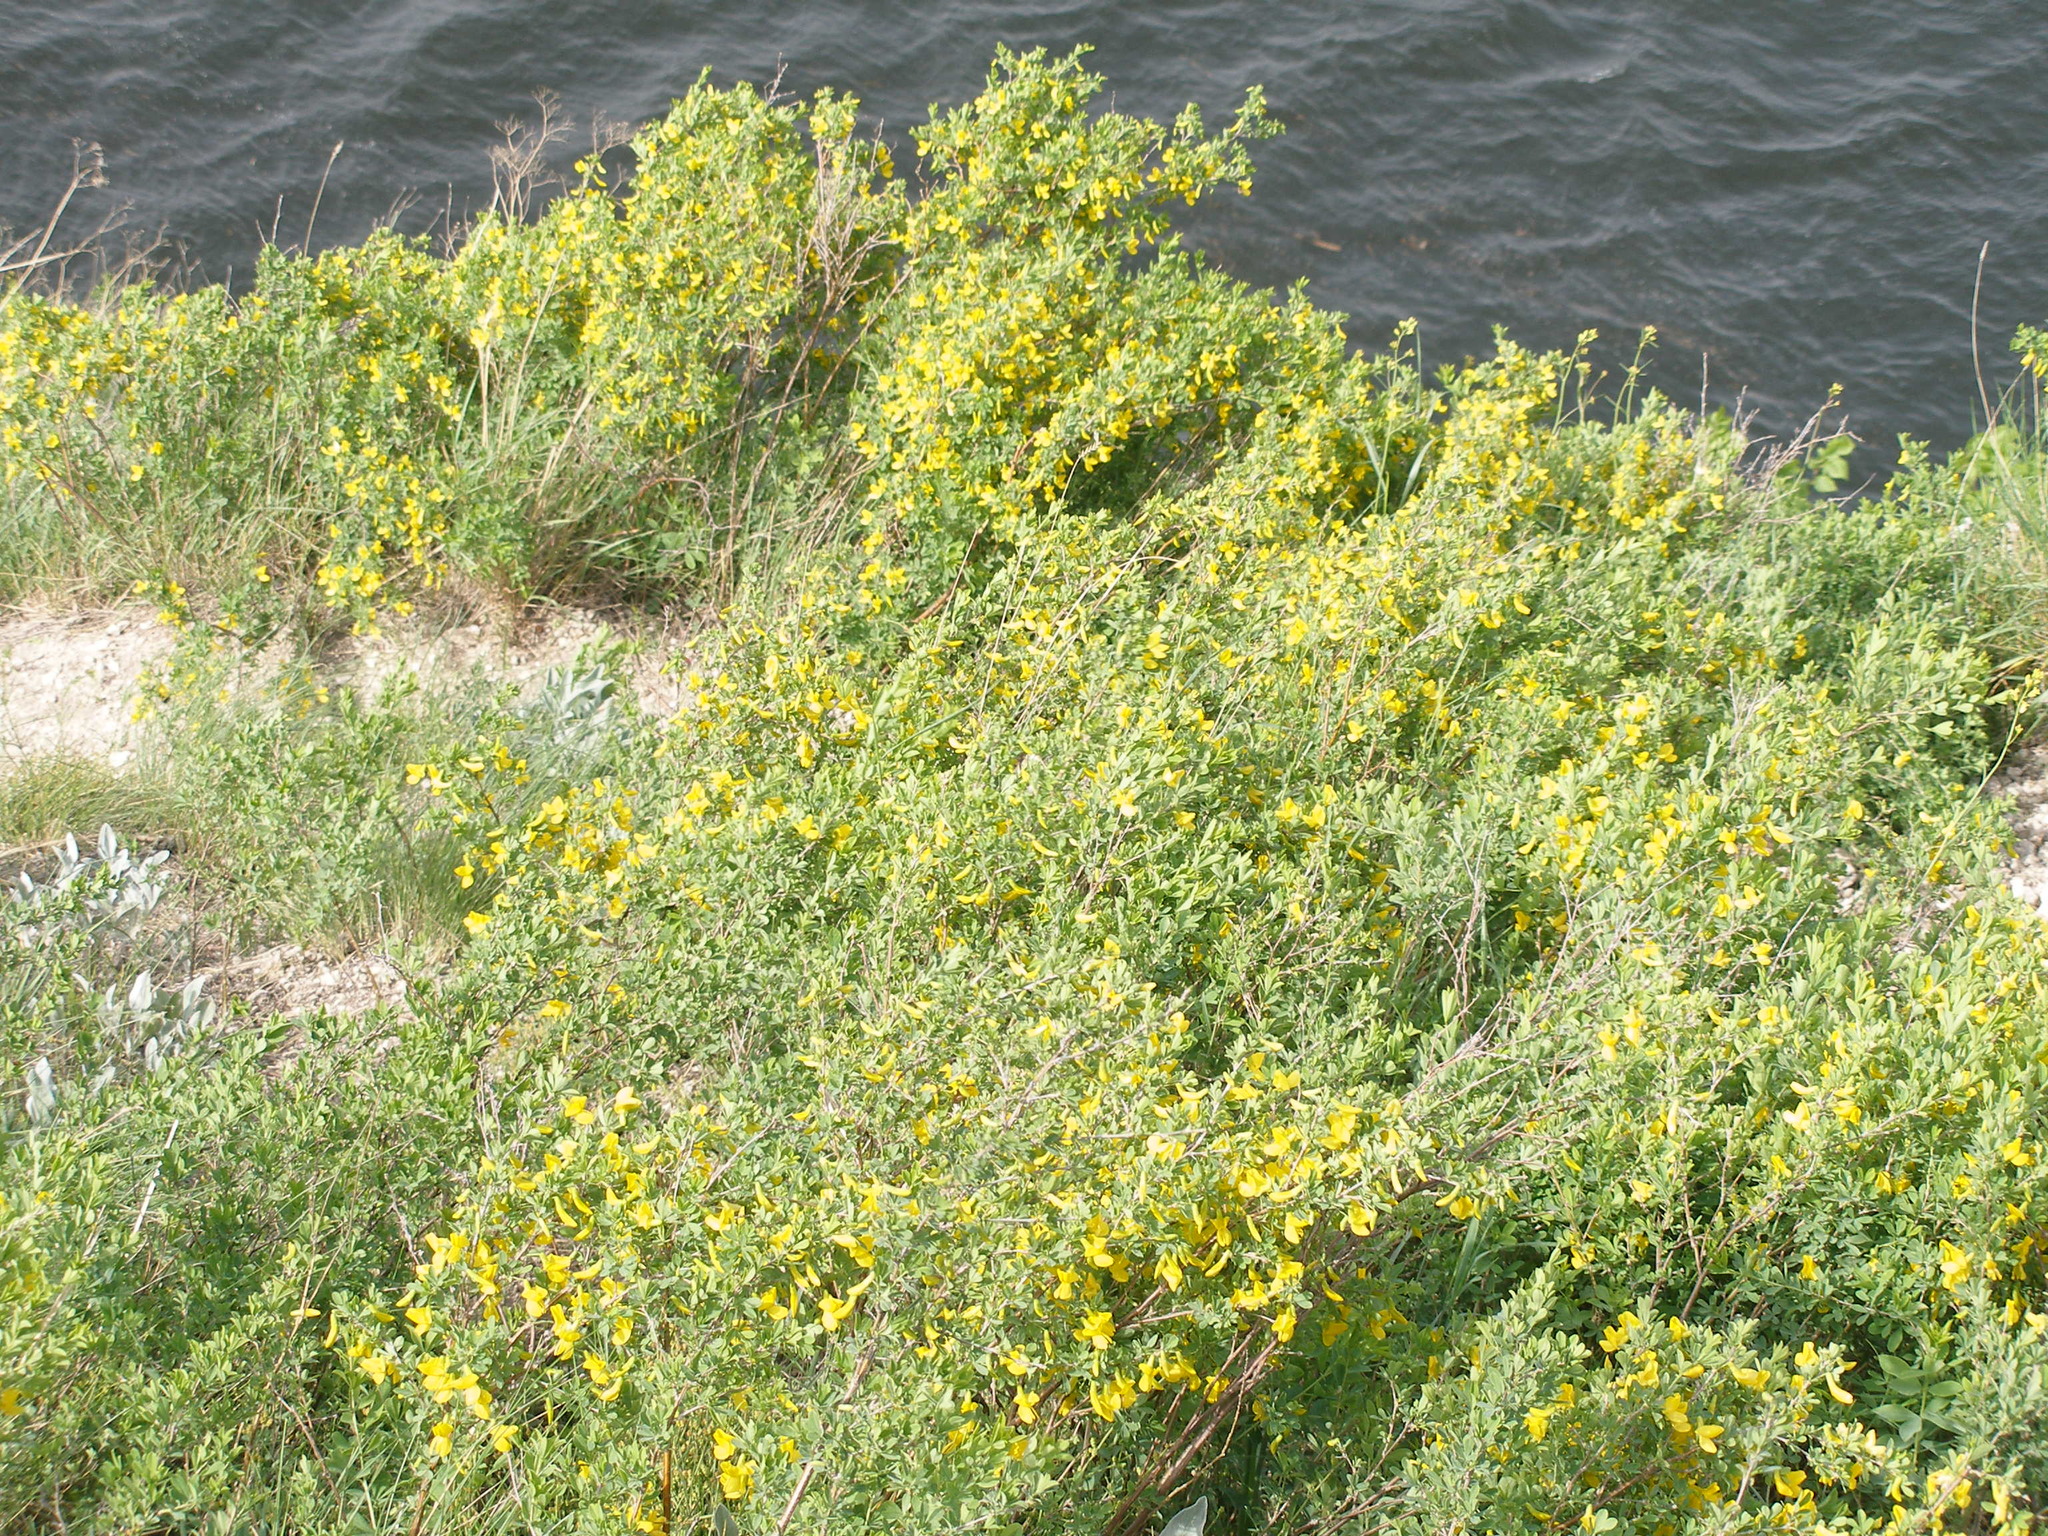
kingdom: Plantae
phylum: Tracheophyta
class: Magnoliopsida
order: Fabales
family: Fabaceae
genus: Caragana
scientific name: Caragana frutex
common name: Russian peashrub
